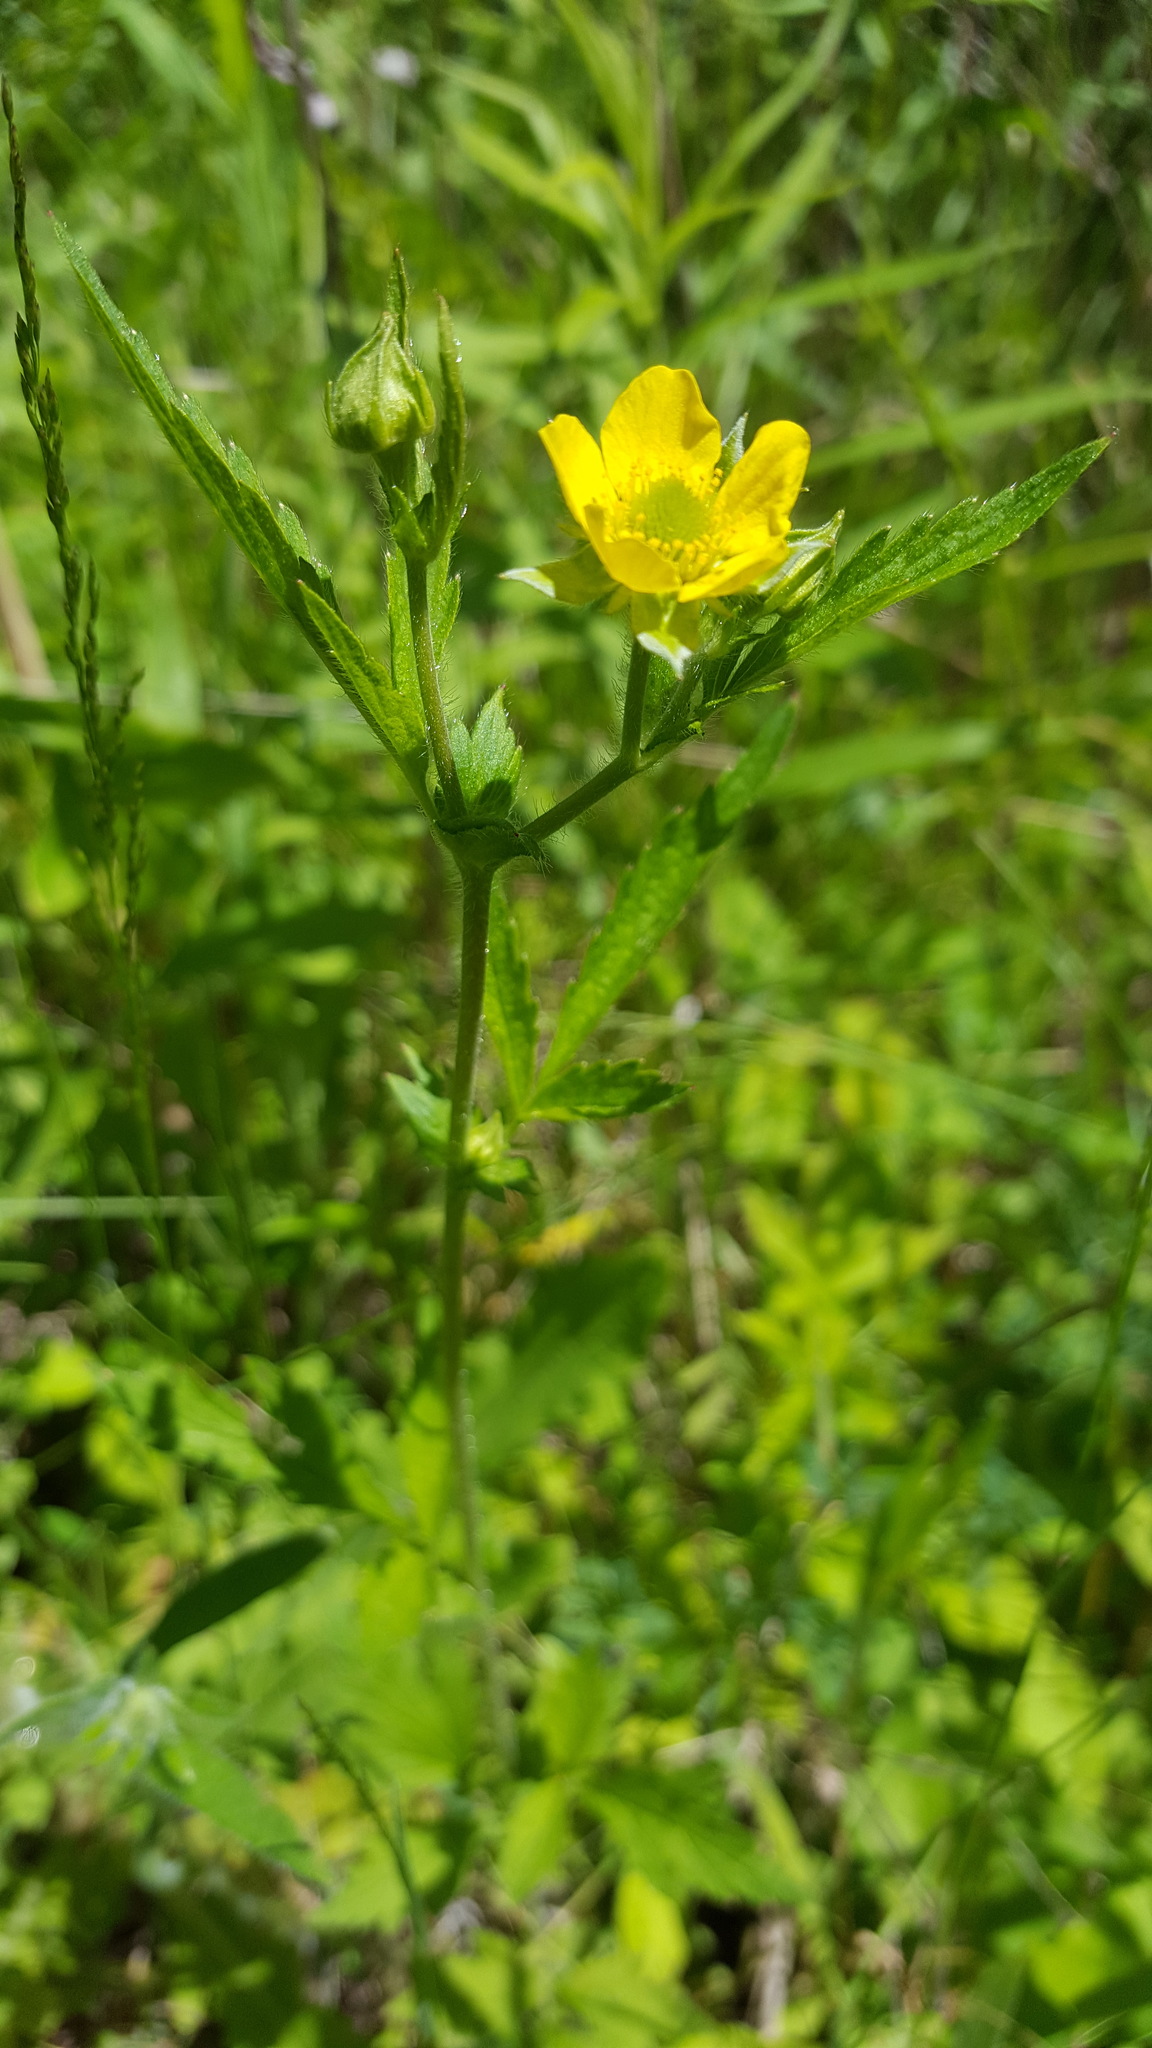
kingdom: Plantae
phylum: Tracheophyta
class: Magnoliopsida
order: Rosales
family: Rosaceae
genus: Geum
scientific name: Geum aleppicum
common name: Yellow avens
